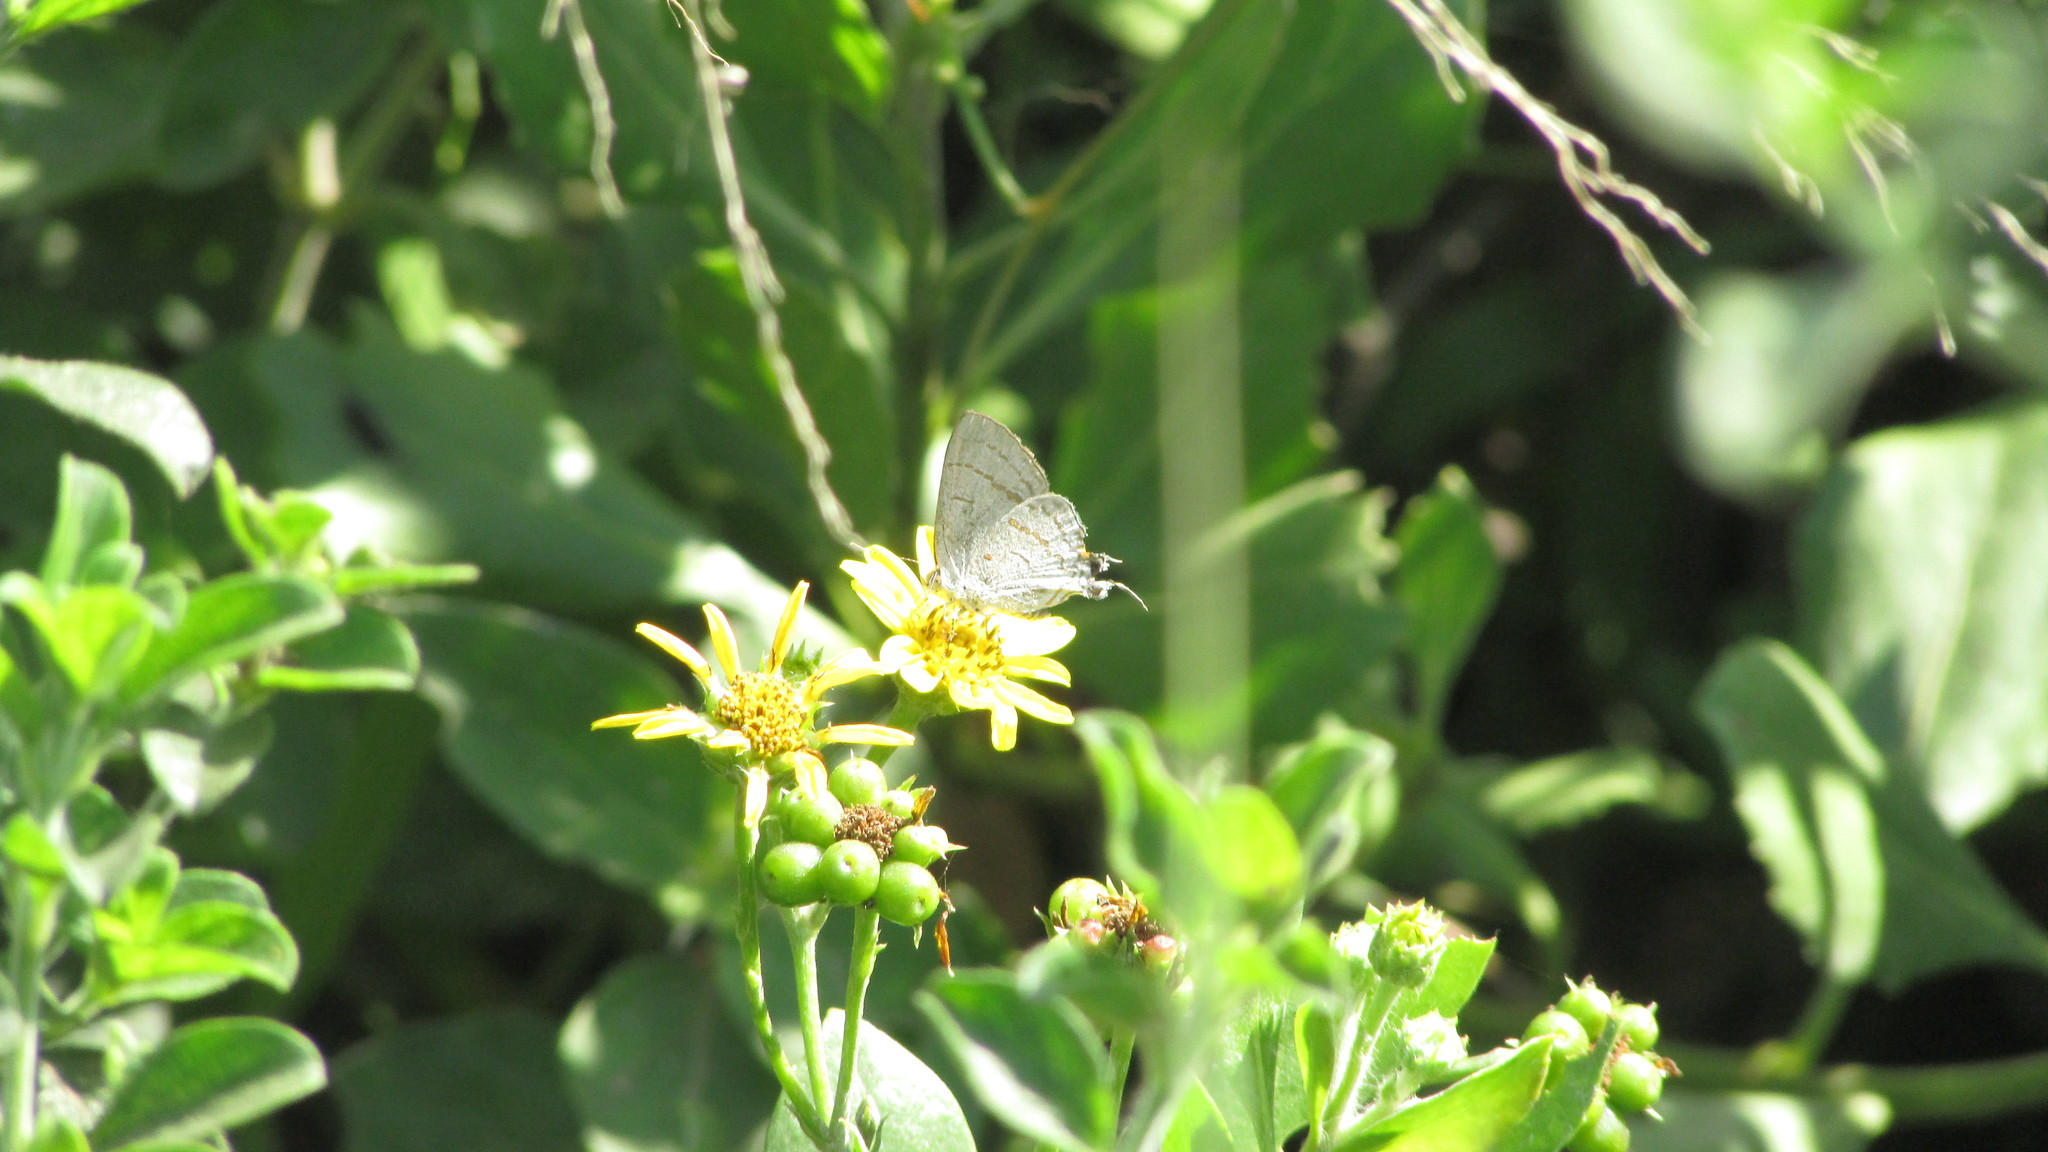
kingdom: Animalia
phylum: Arthropoda
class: Insecta
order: Lepidoptera
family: Lycaenidae
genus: Hypolycaena
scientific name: Hypolycaena philippus
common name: Common hairstreak
